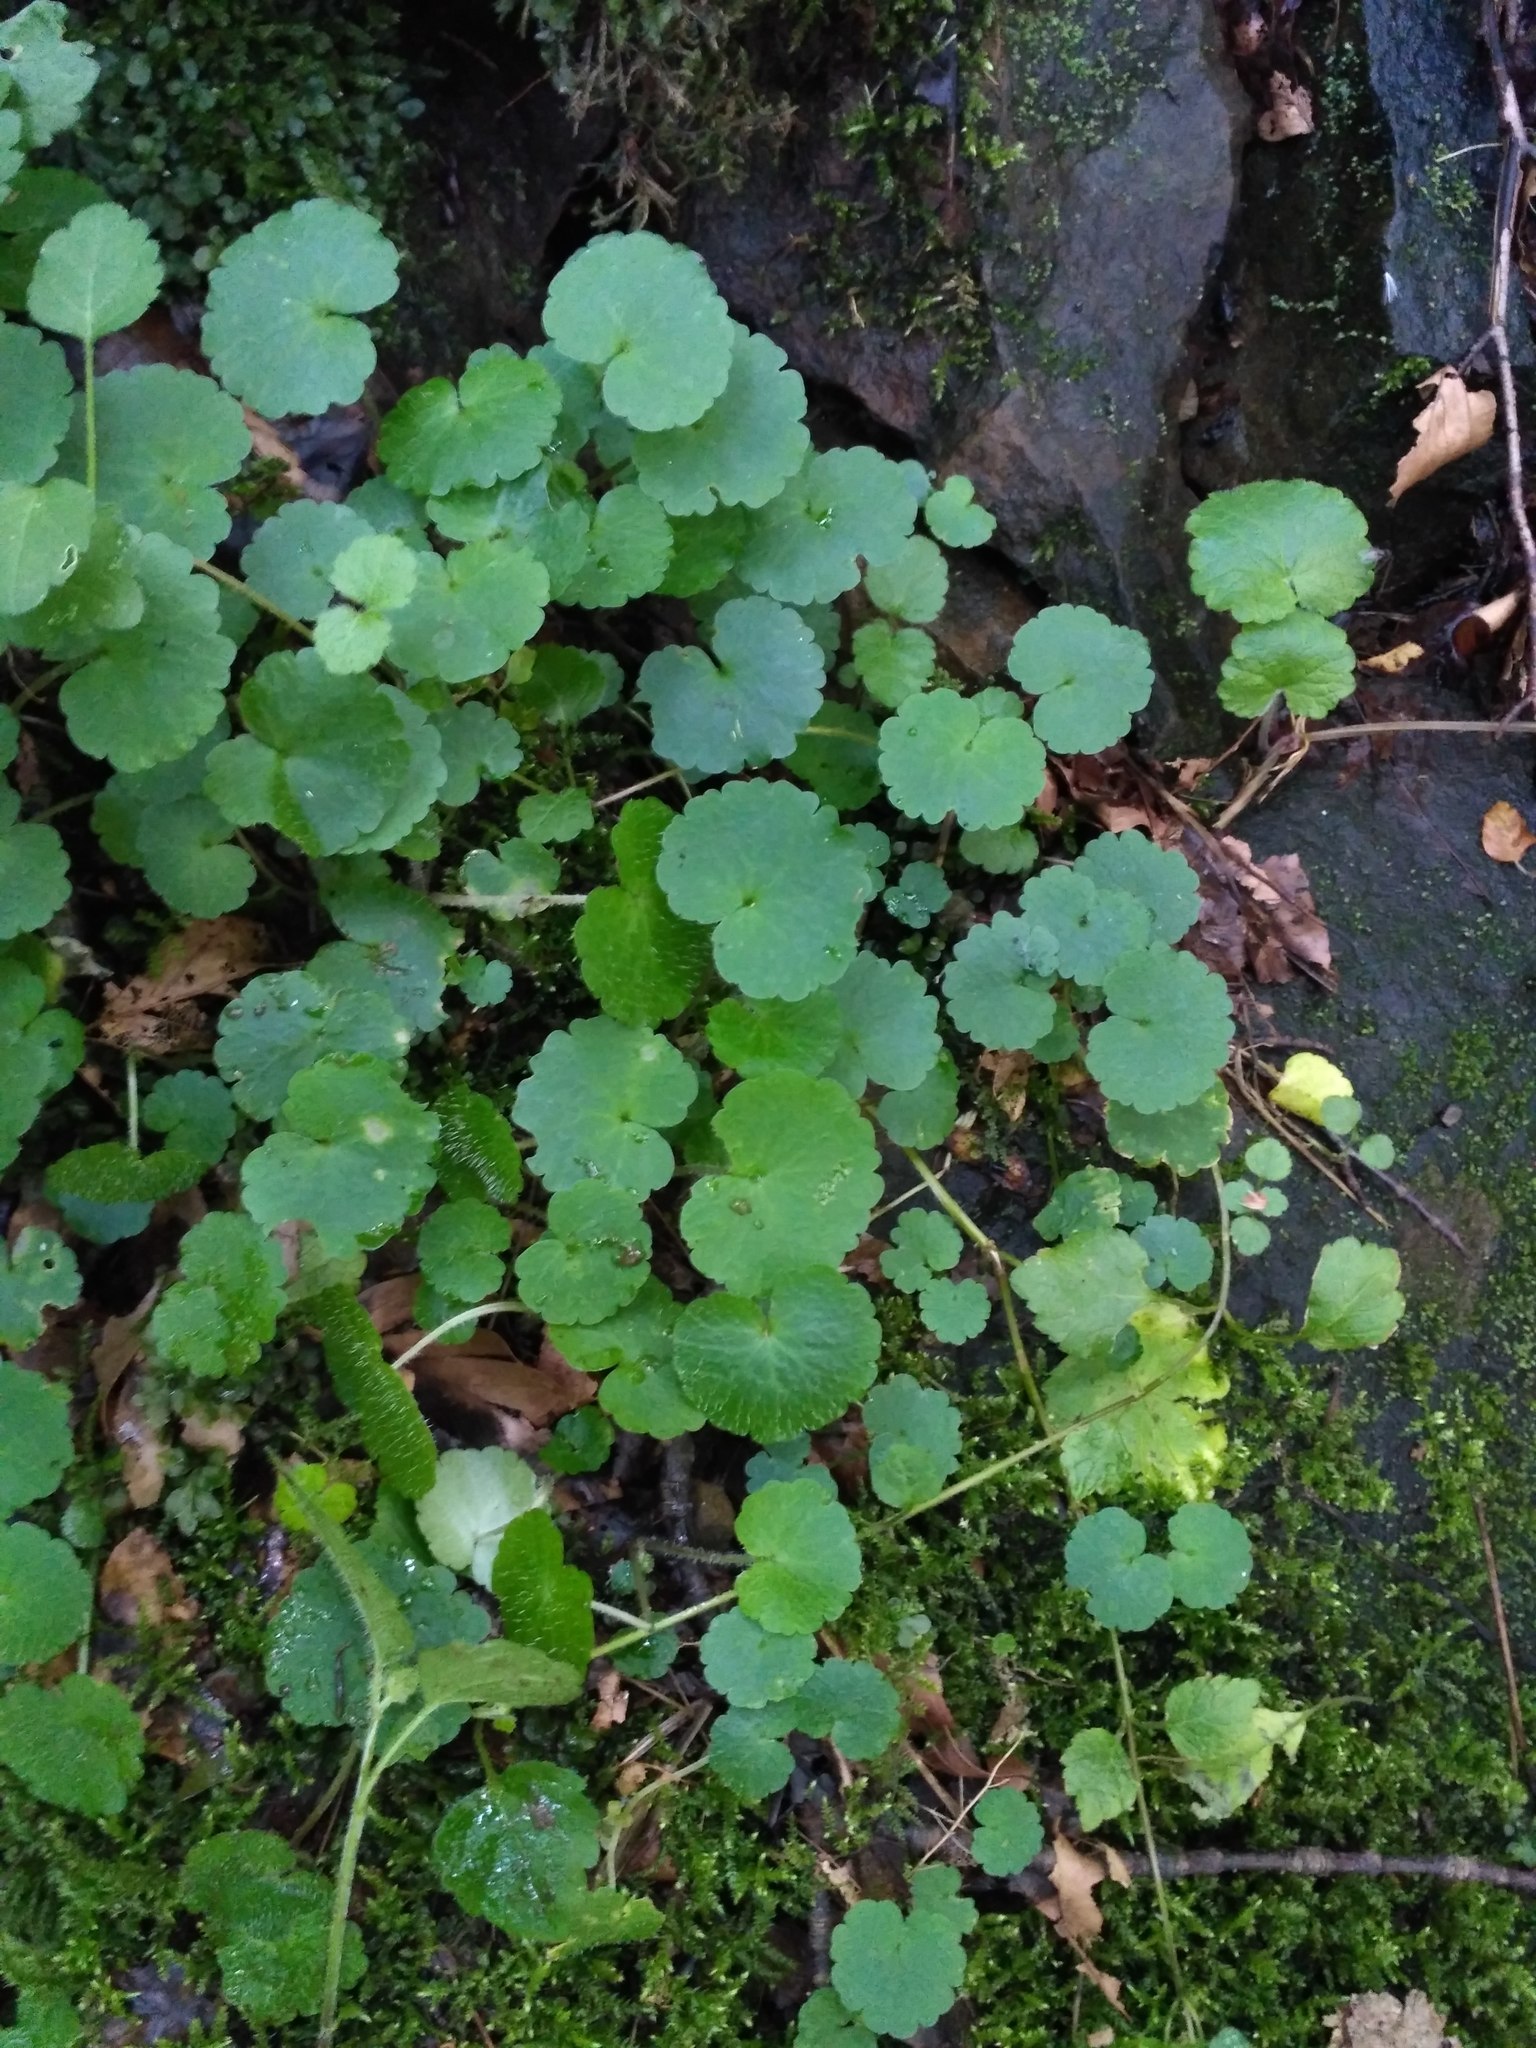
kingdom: Plantae
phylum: Tracheophyta
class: Magnoliopsida
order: Lamiales
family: Lamiaceae
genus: Glechoma
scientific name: Glechoma hederacea
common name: Ground ivy
